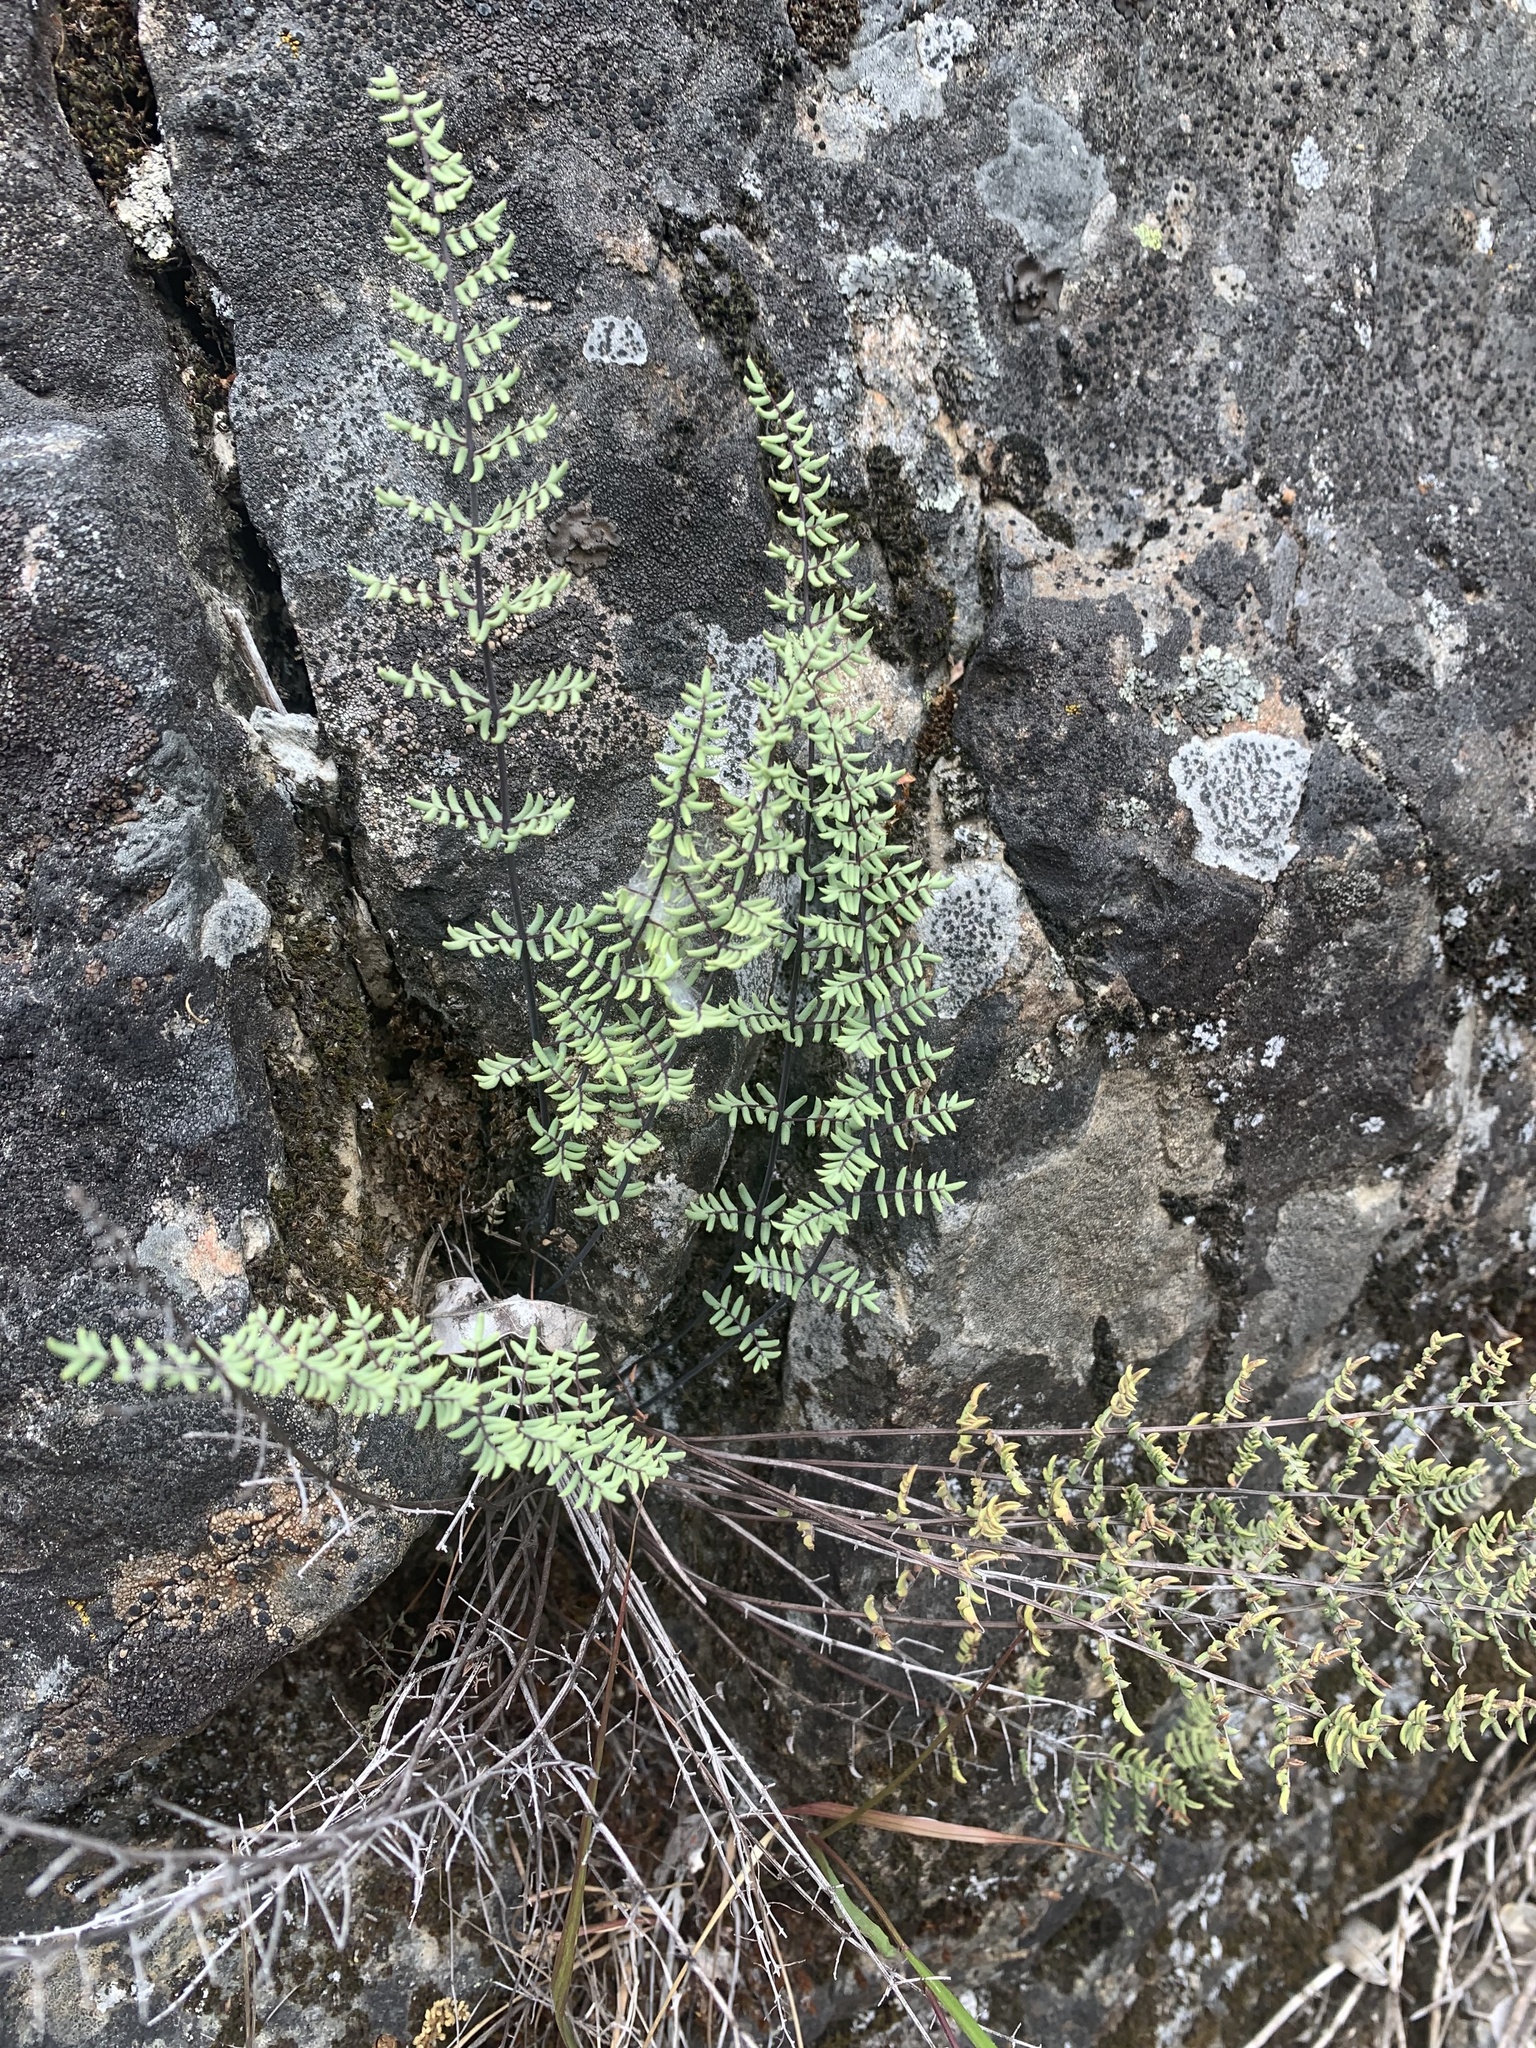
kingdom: Plantae
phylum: Tracheophyta
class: Polypodiopsida
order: Polypodiales
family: Pteridaceae
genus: Pellaea
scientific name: Pellaea mucronata
